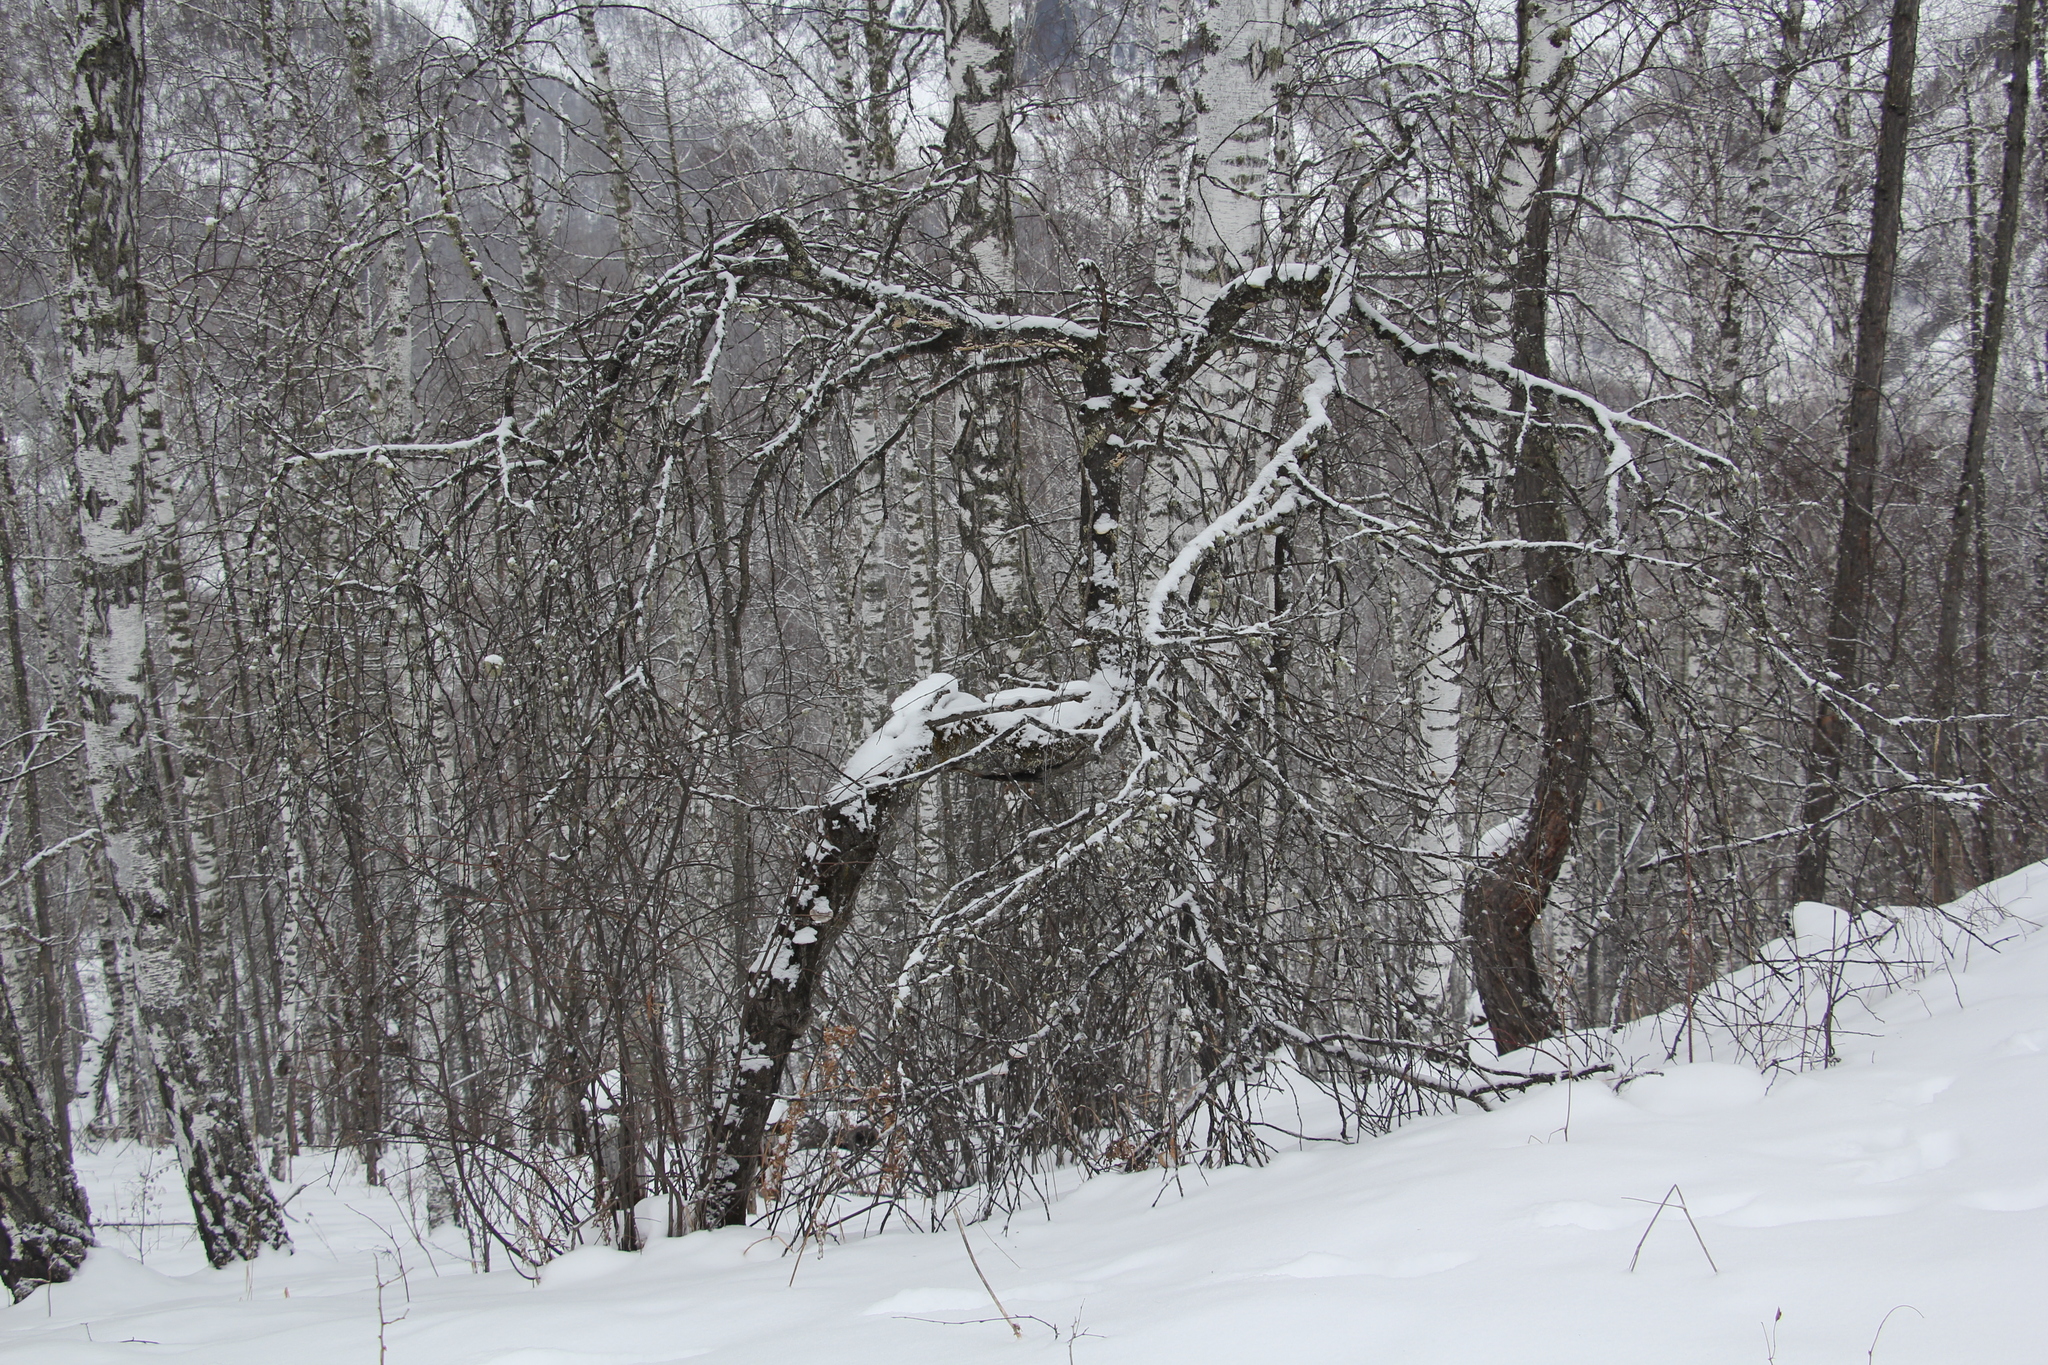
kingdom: Plantae
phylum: Tracheophyta
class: Magnoliopsida
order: Rosales
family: Rosaceae
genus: Prunus
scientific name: Prunus padus
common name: Bird cherry
